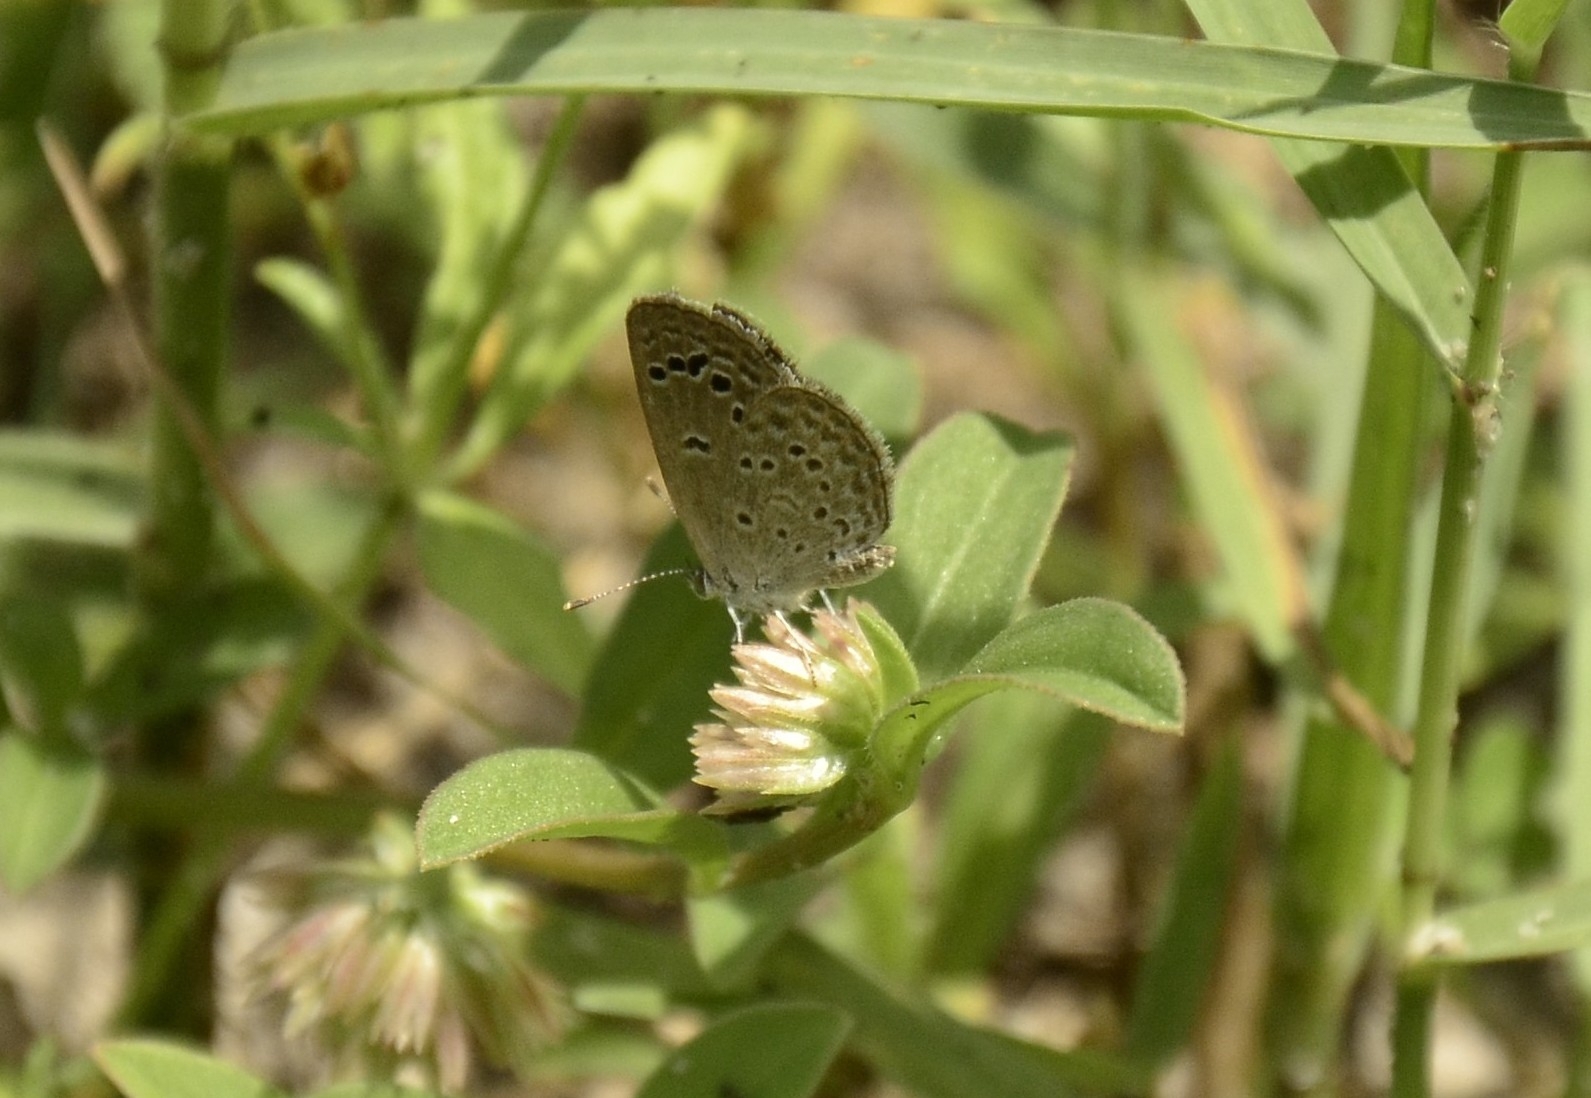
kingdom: Animalia
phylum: Arthropoda
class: Insecta
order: Lepidoptera
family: Lycaenidae
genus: Zizina
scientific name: Zizina otis
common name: Lesser grass blue
